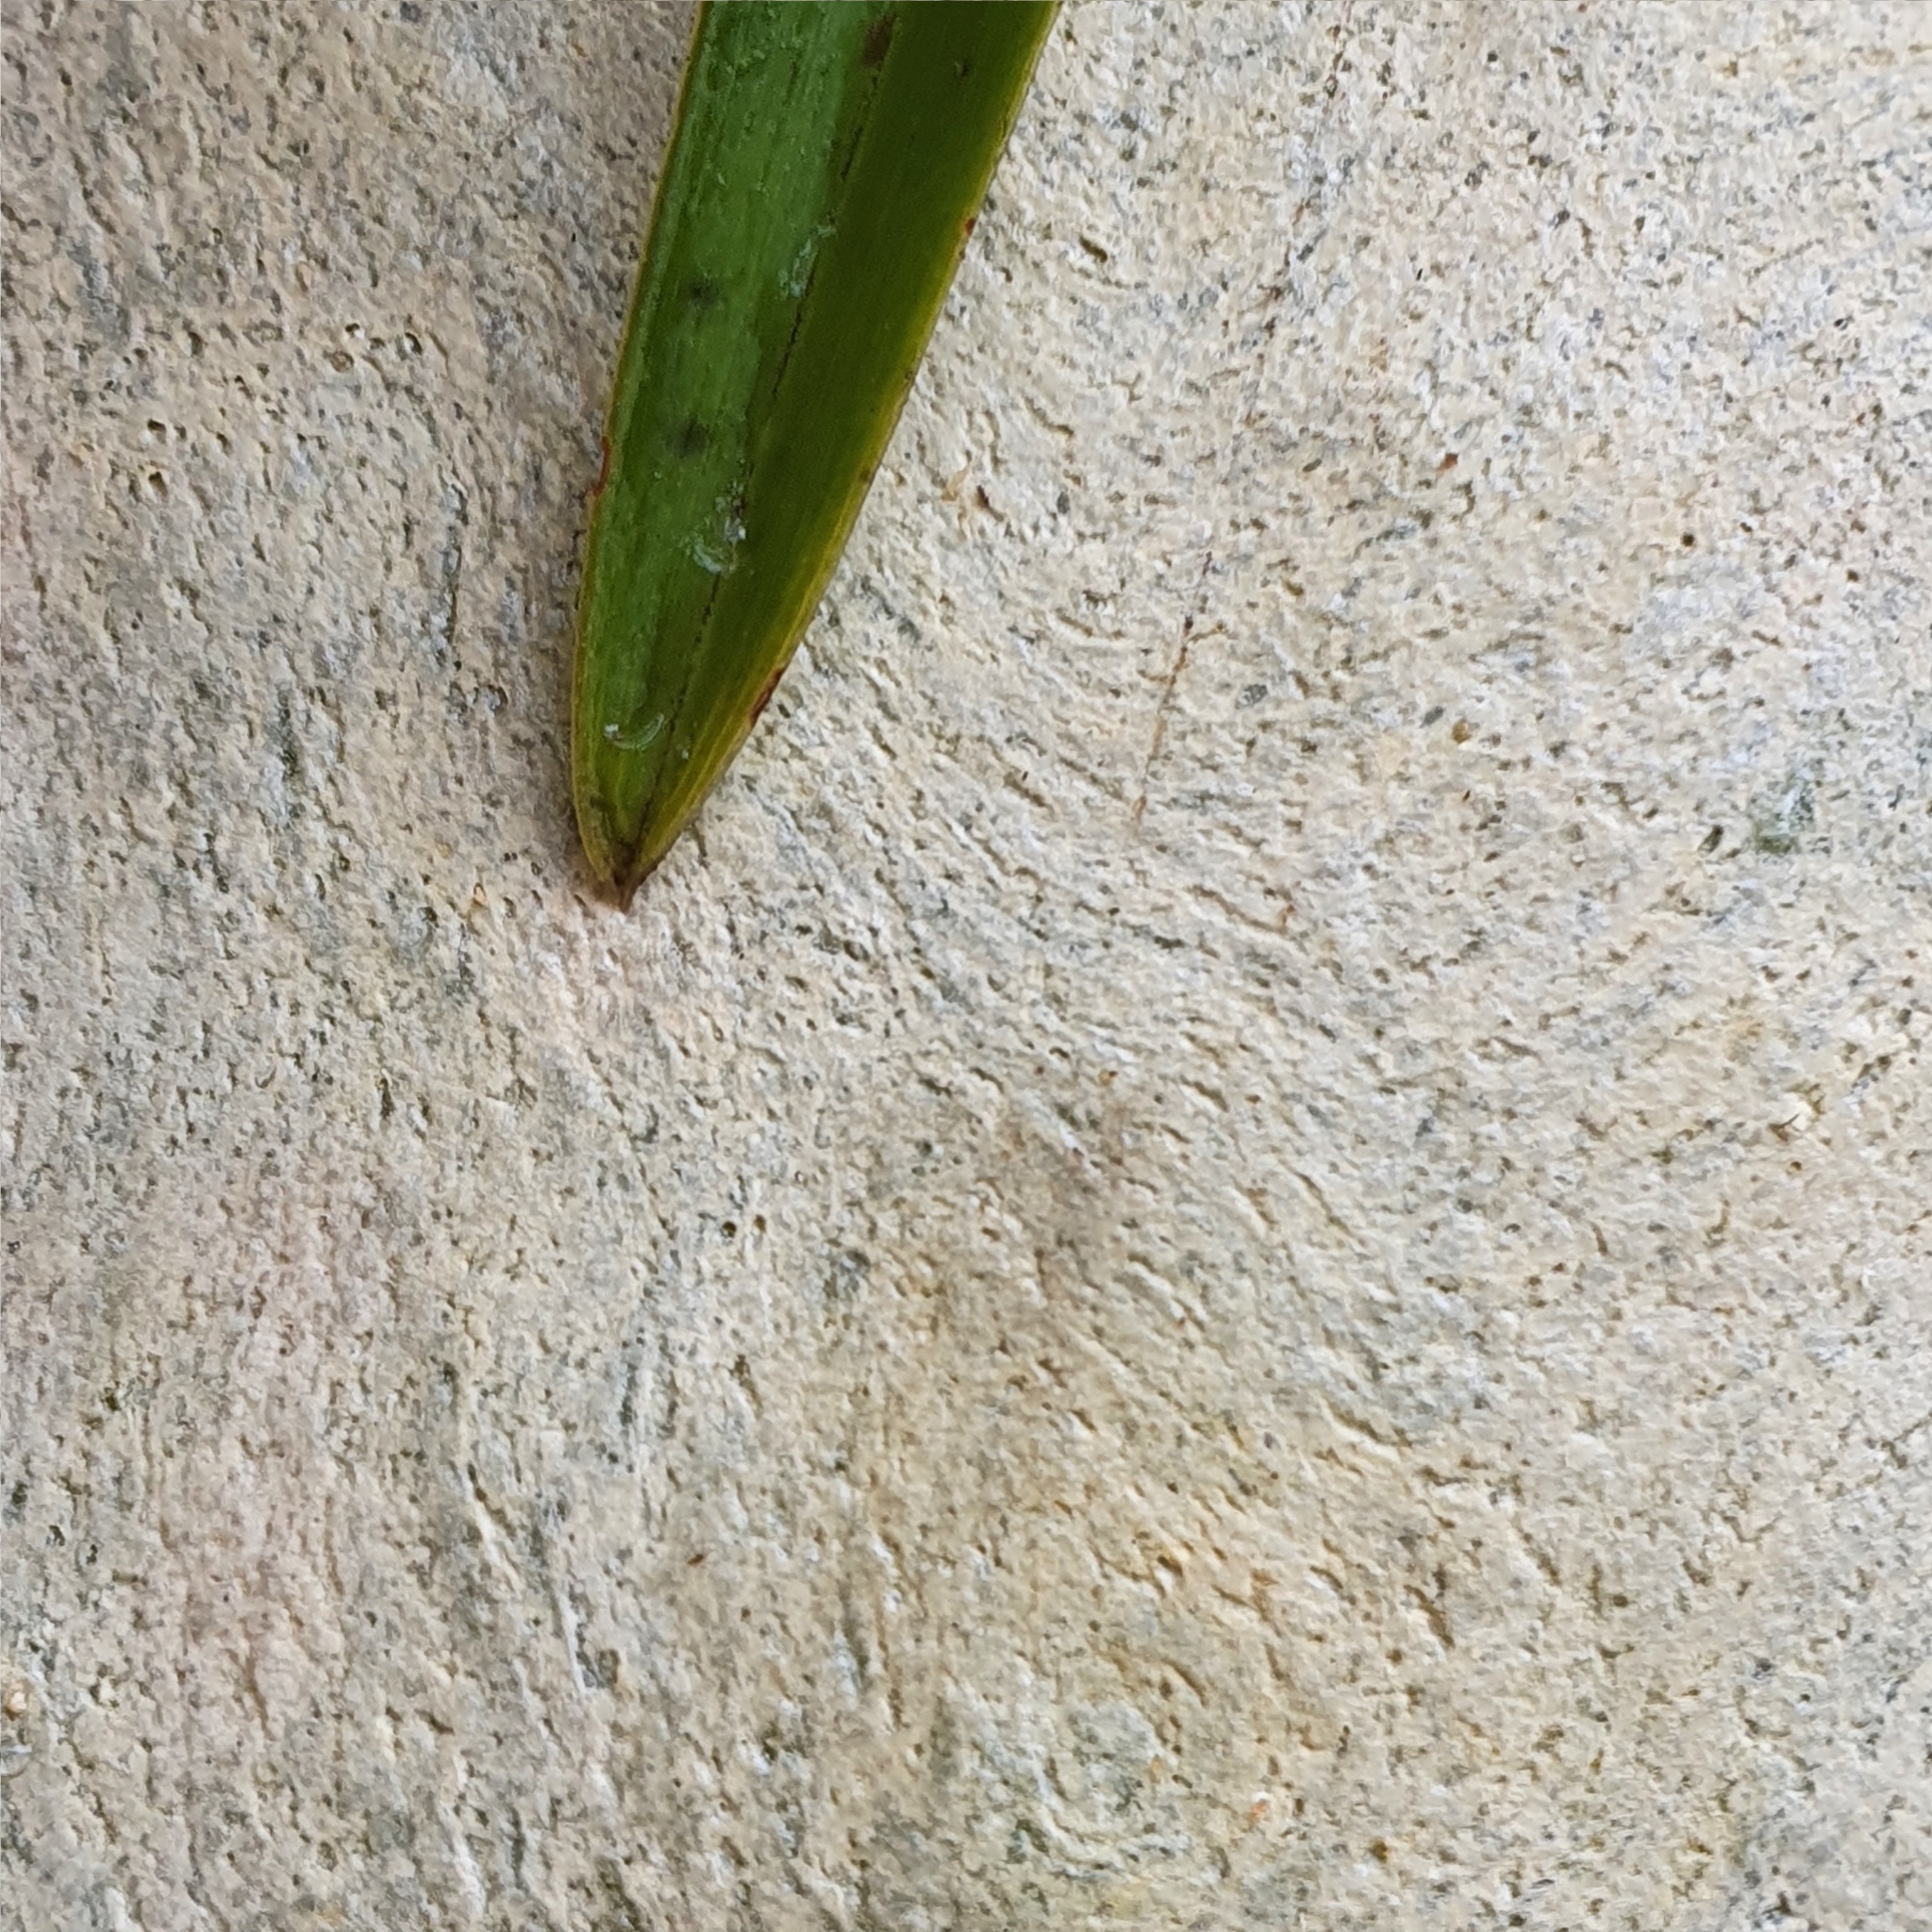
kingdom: Plantae
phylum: Tracheophyta
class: Liliopsida
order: Asparagales
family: Orchidaceae
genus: Cymbidium
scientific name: Cymbidium suave
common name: Snake orchid
